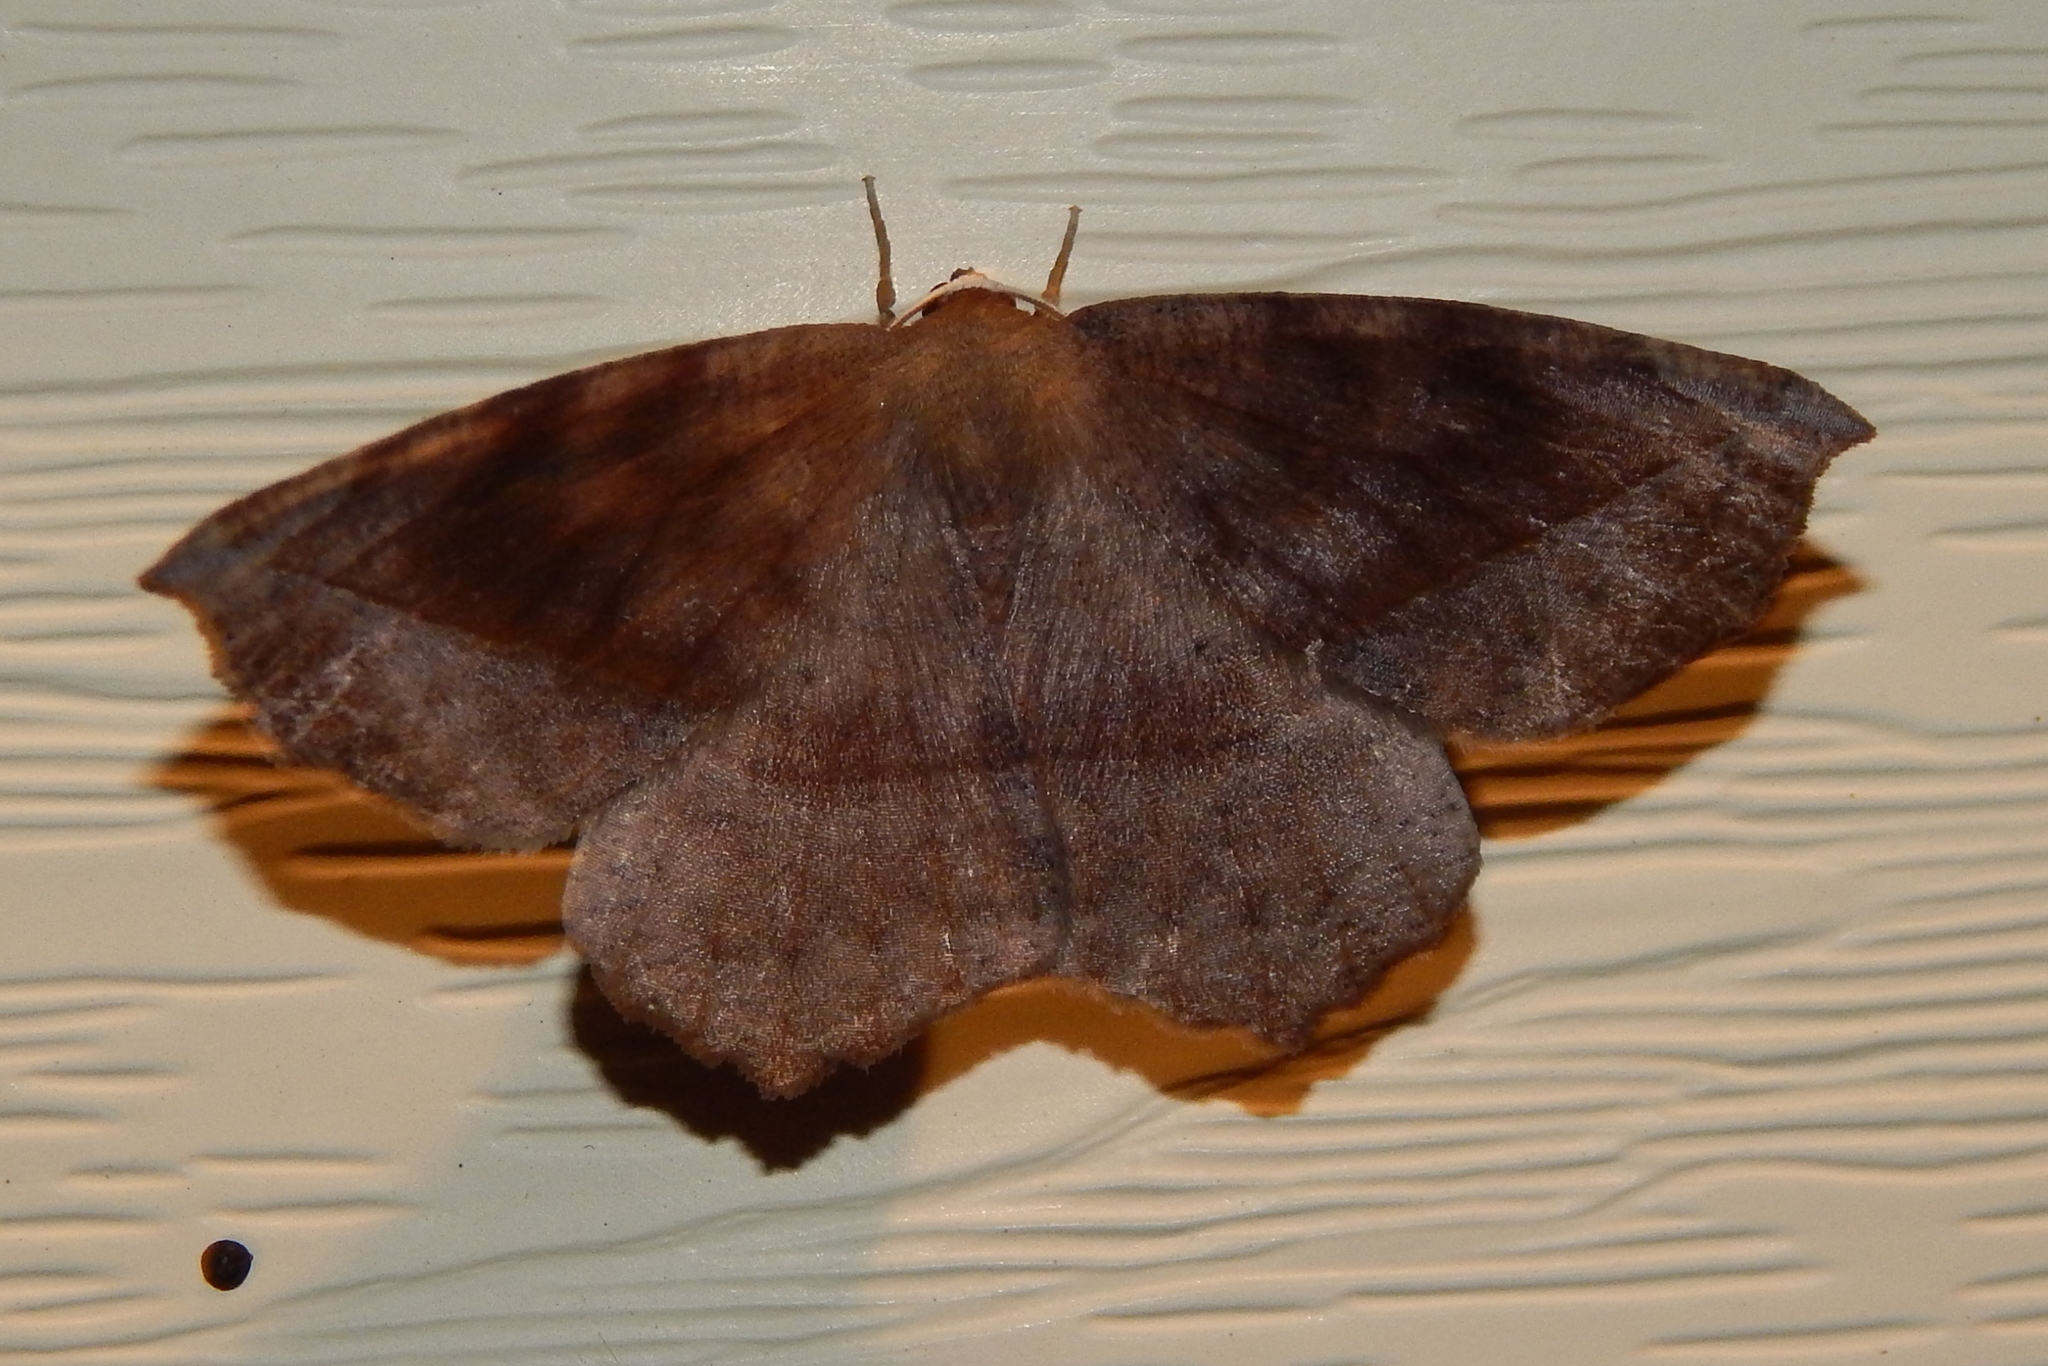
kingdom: Animalia
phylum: Arthropoda
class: Insecta
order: Lepidoptera
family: Geometridae
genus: Eutrapela
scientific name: Eutrapela clemataria
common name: Curved-toothed geometer
